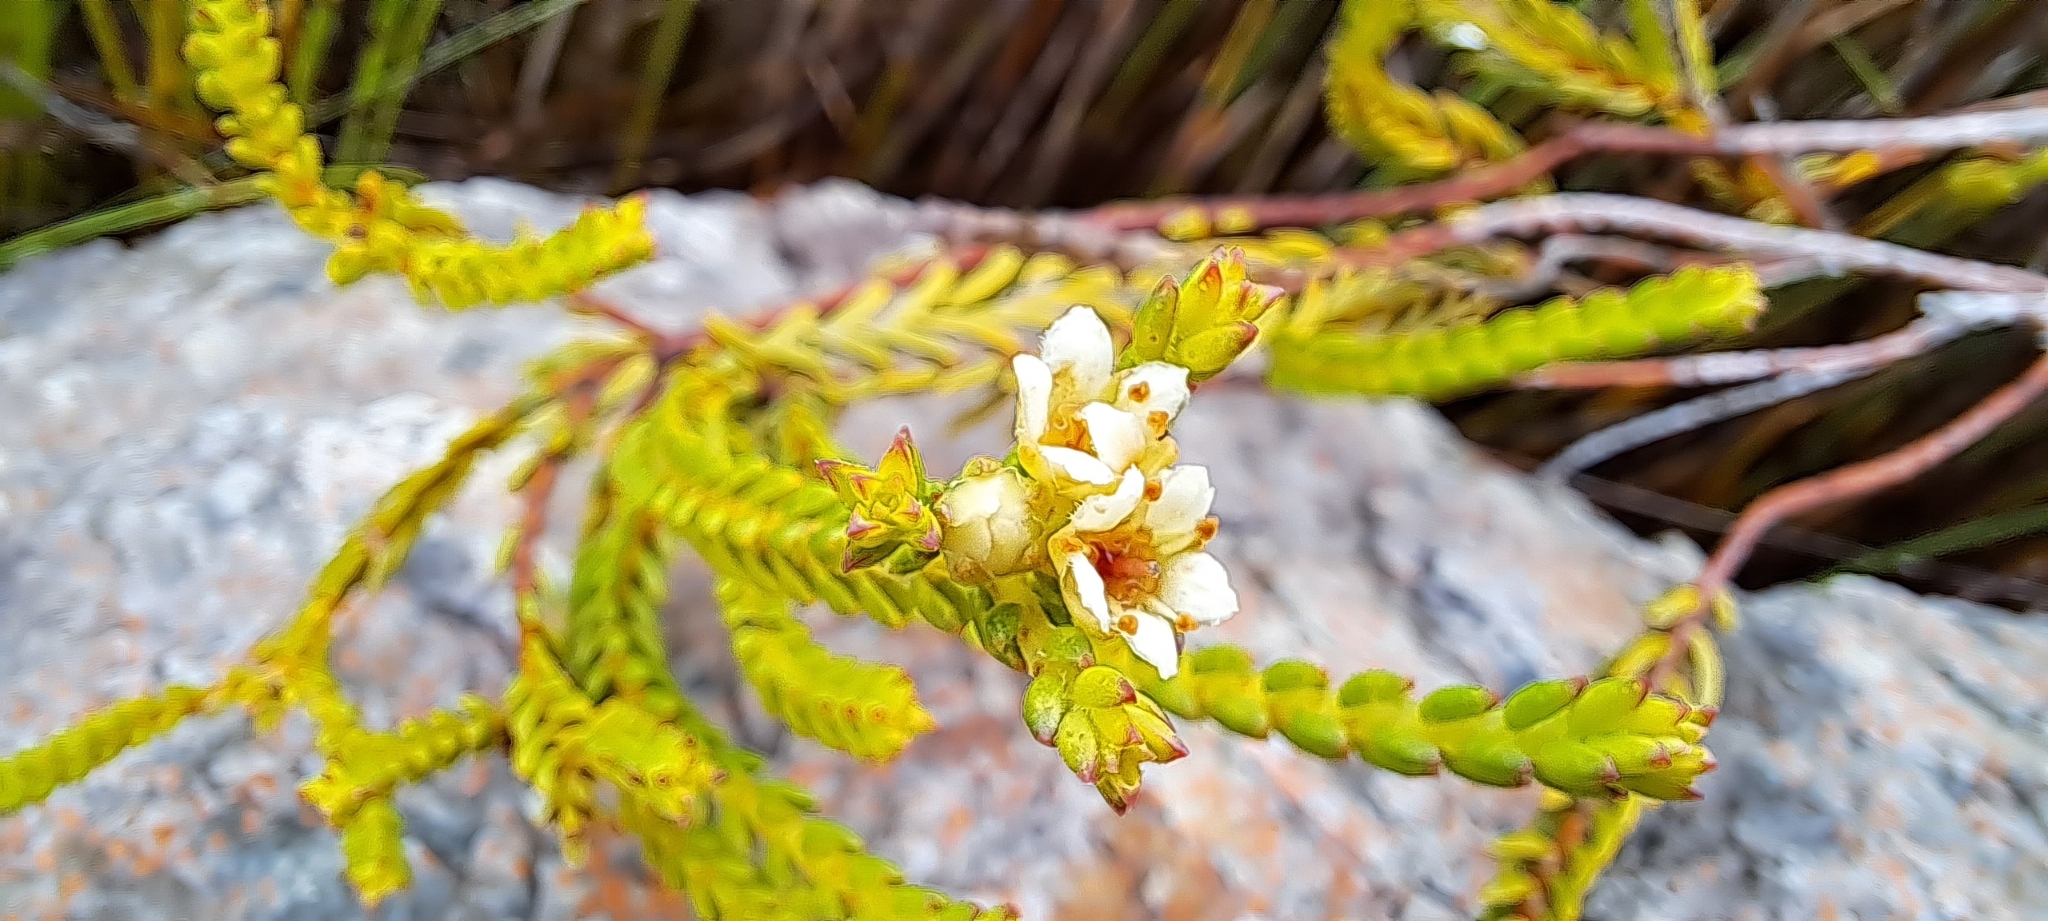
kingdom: Plantae
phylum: Tracheophyta
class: Magnoliopsida
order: Sapindales
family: Rutaceae
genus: Diosma
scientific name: Diosma oppositifolia
